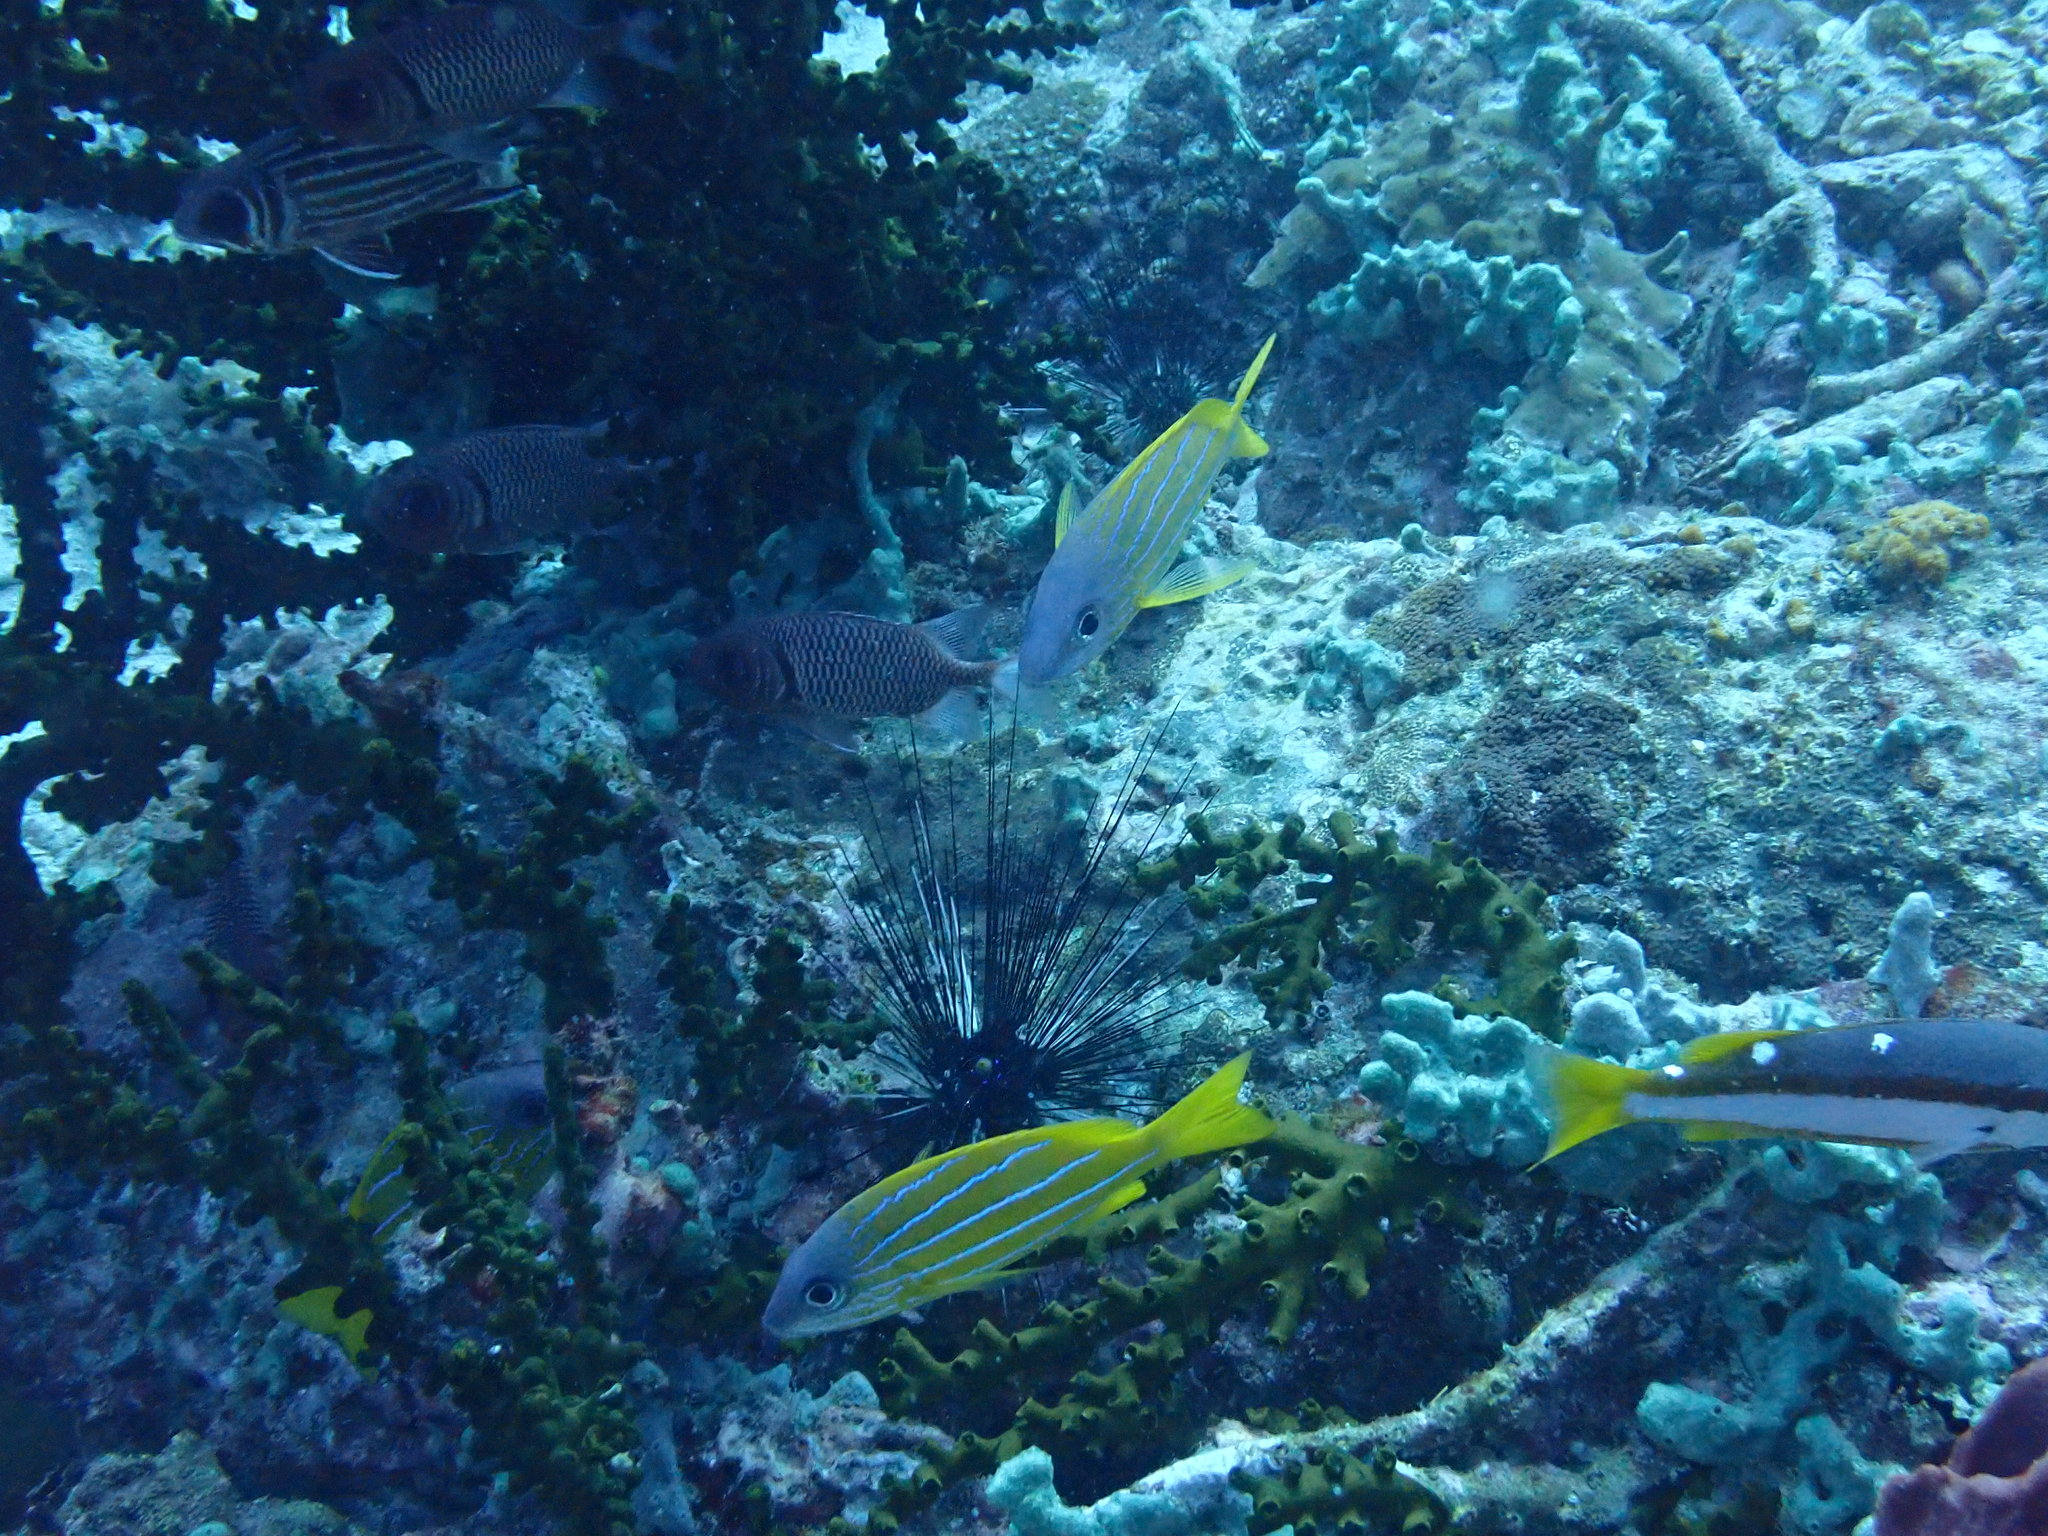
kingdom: Animalia
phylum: Chordata
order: Perciformes
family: Lutjanidae
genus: Lutjanus
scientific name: Lutjanus kasmira
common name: Common bluestripe snapper
